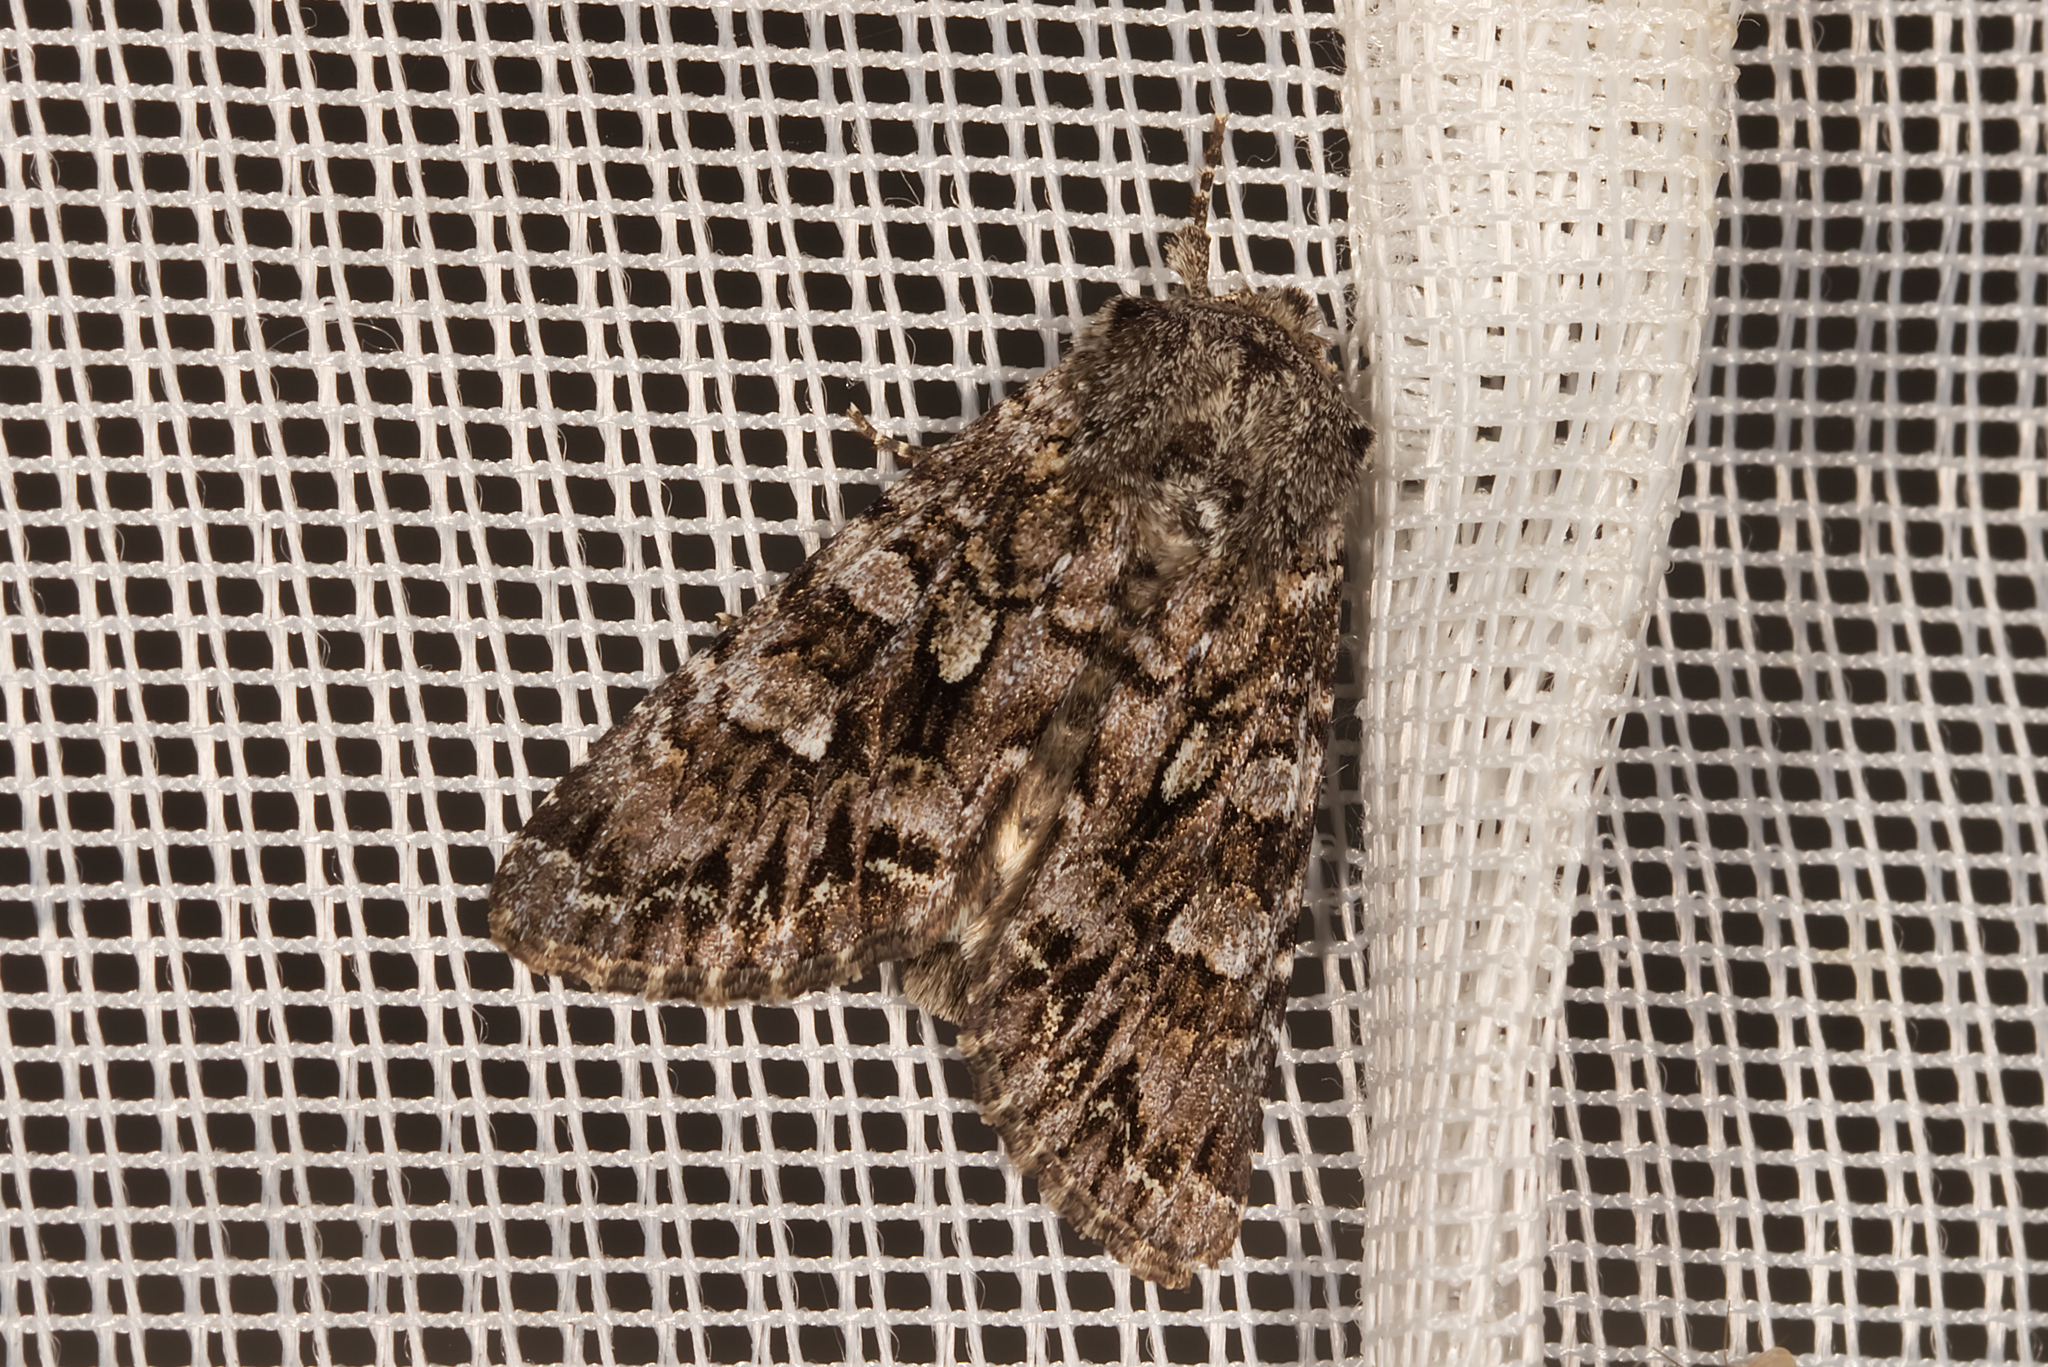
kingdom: Animalia
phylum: Arthropoda
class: Insecta
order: Lepidoptera
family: Noctuidae
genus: Papestra
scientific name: Papestra biren
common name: Glaucous shears
